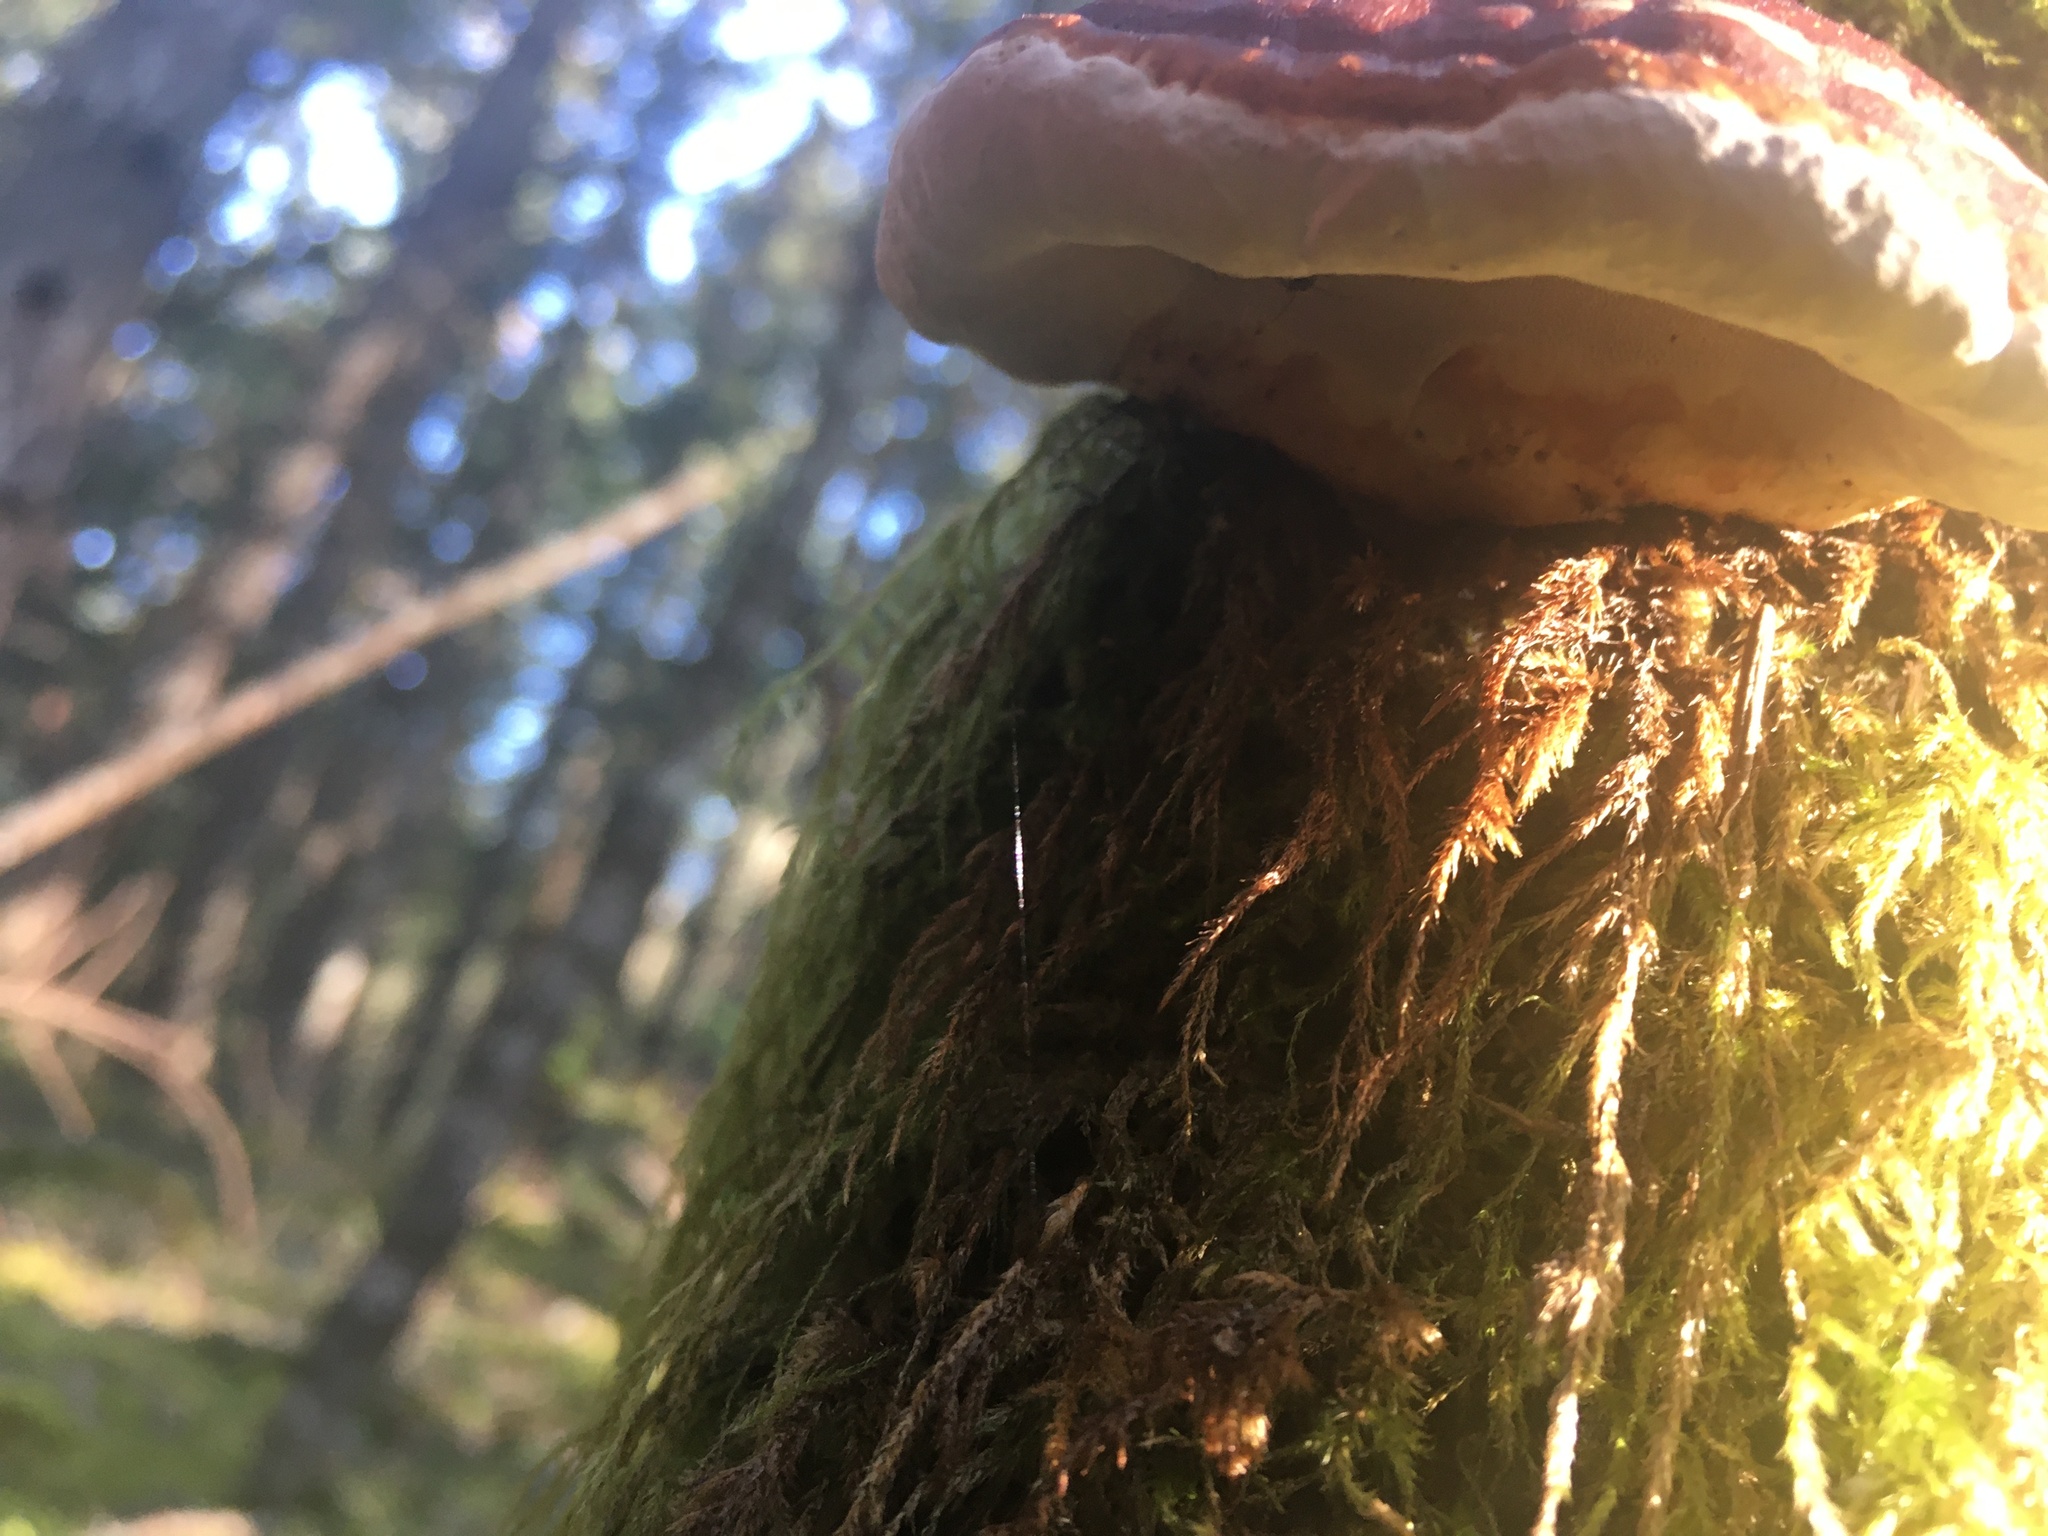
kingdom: Fungi
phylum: Basidiomycota
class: Agaricomycetes
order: Polyporales
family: Fomitopsidaceae
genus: Fomitopsis
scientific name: Fomitopsis mounceae
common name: Northern red belt
